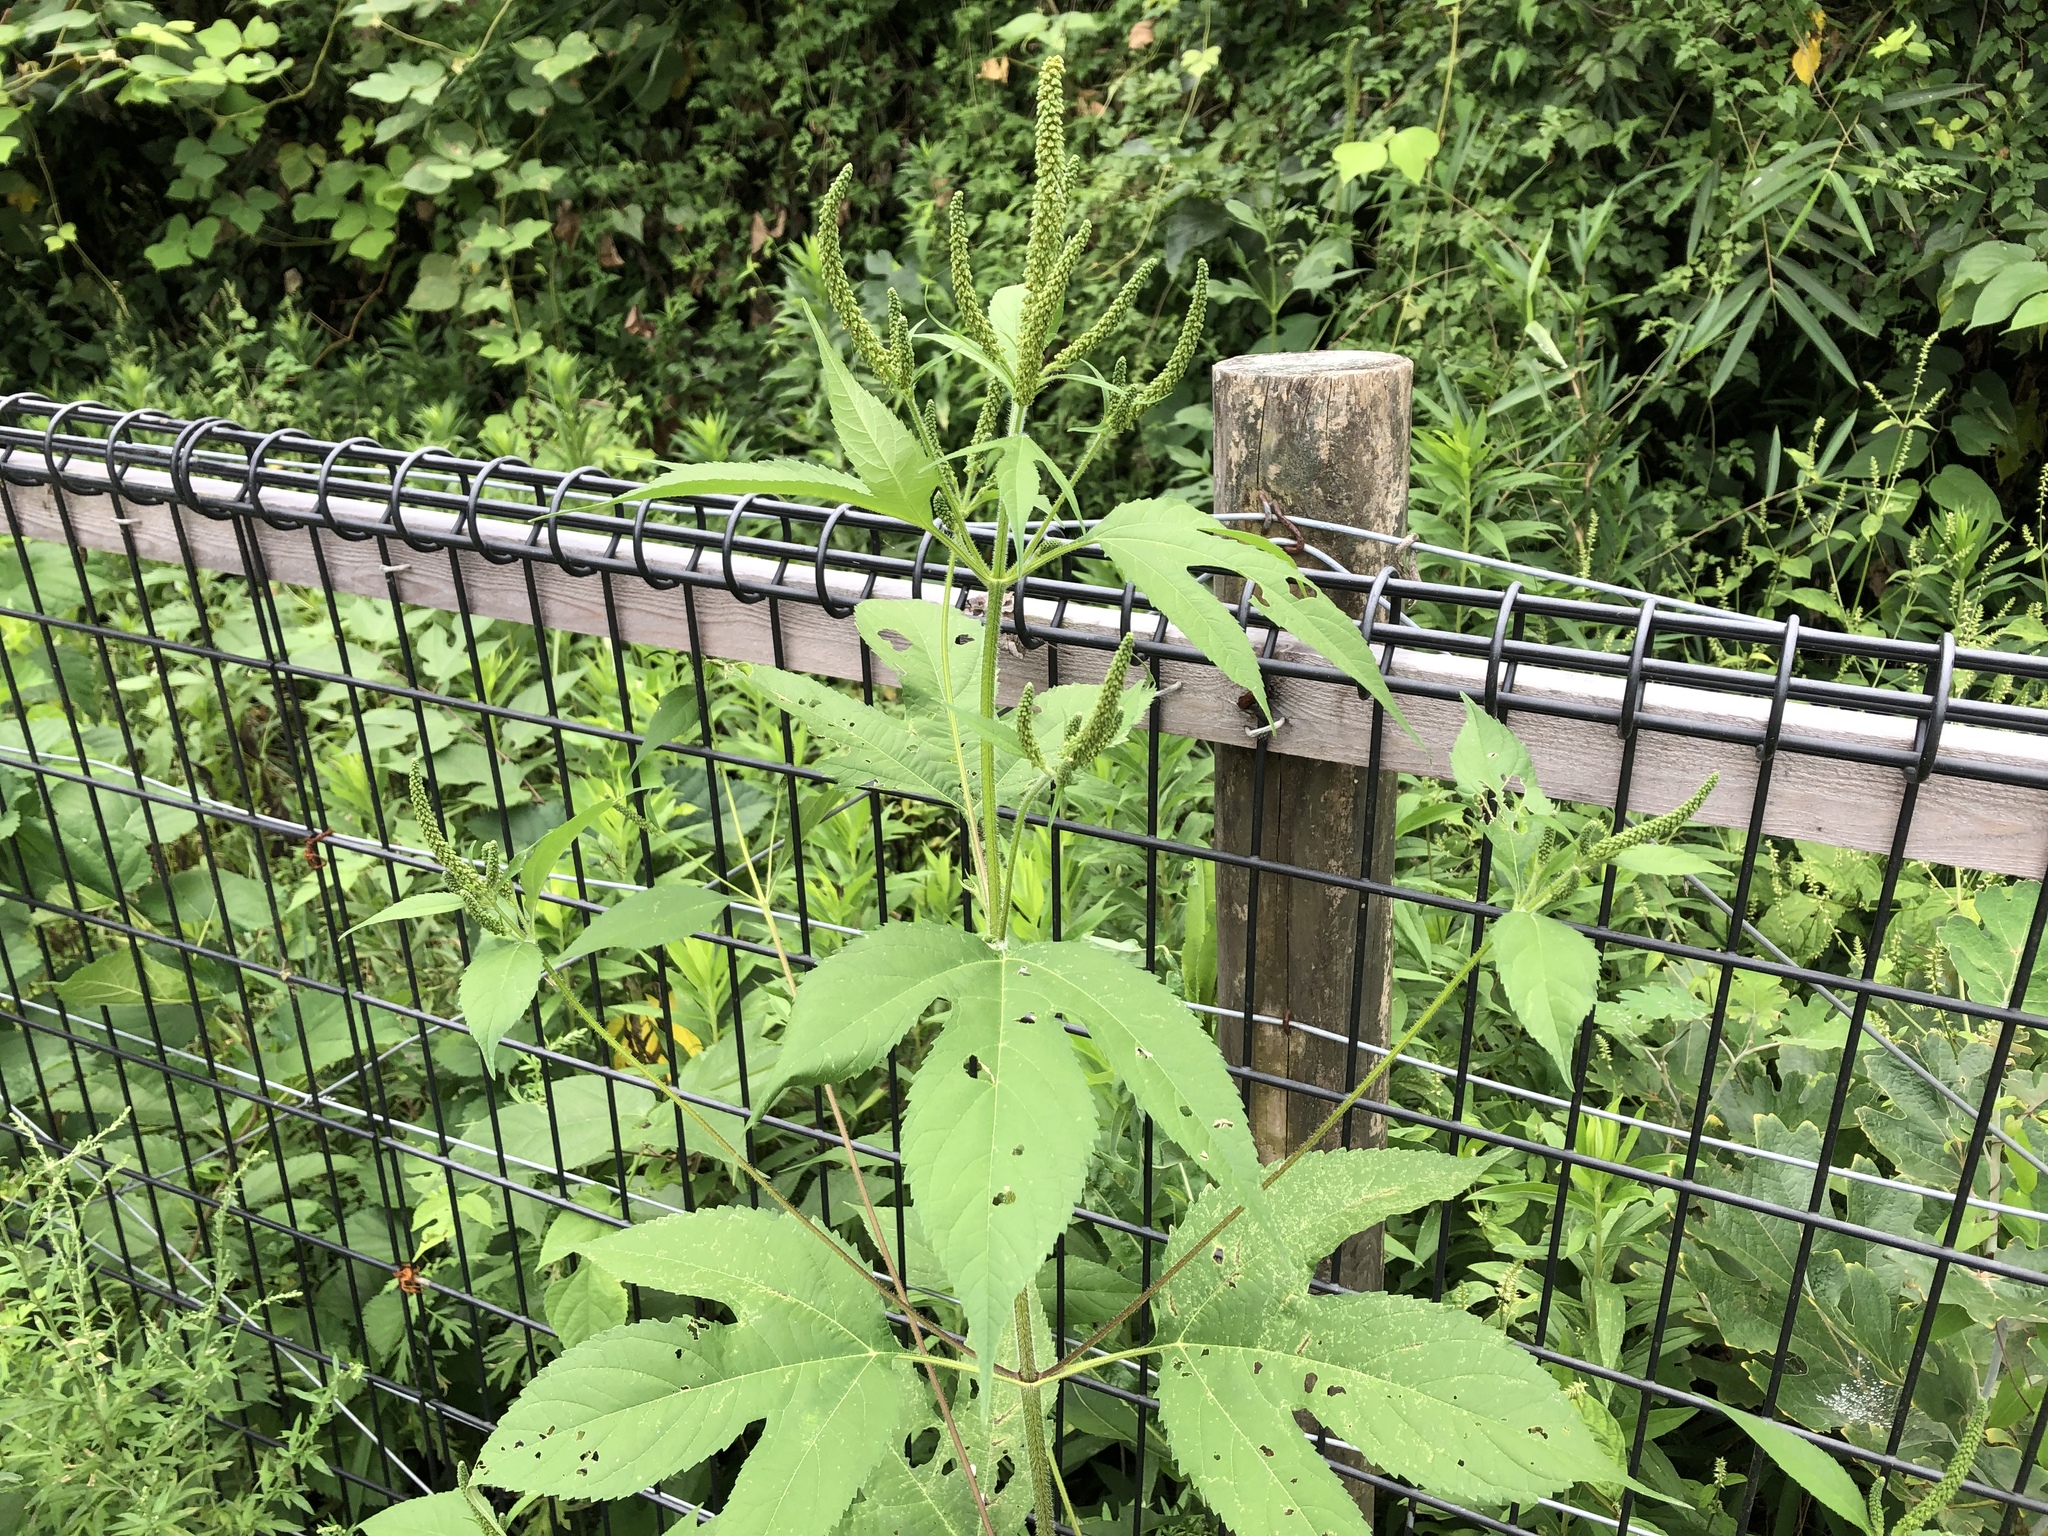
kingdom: Plantae
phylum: Tracheophyta
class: Magnoliopsida
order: Asterales
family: Asteraceae
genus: Ambrosia
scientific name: Ambrosia trifida
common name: Giant ragweed
